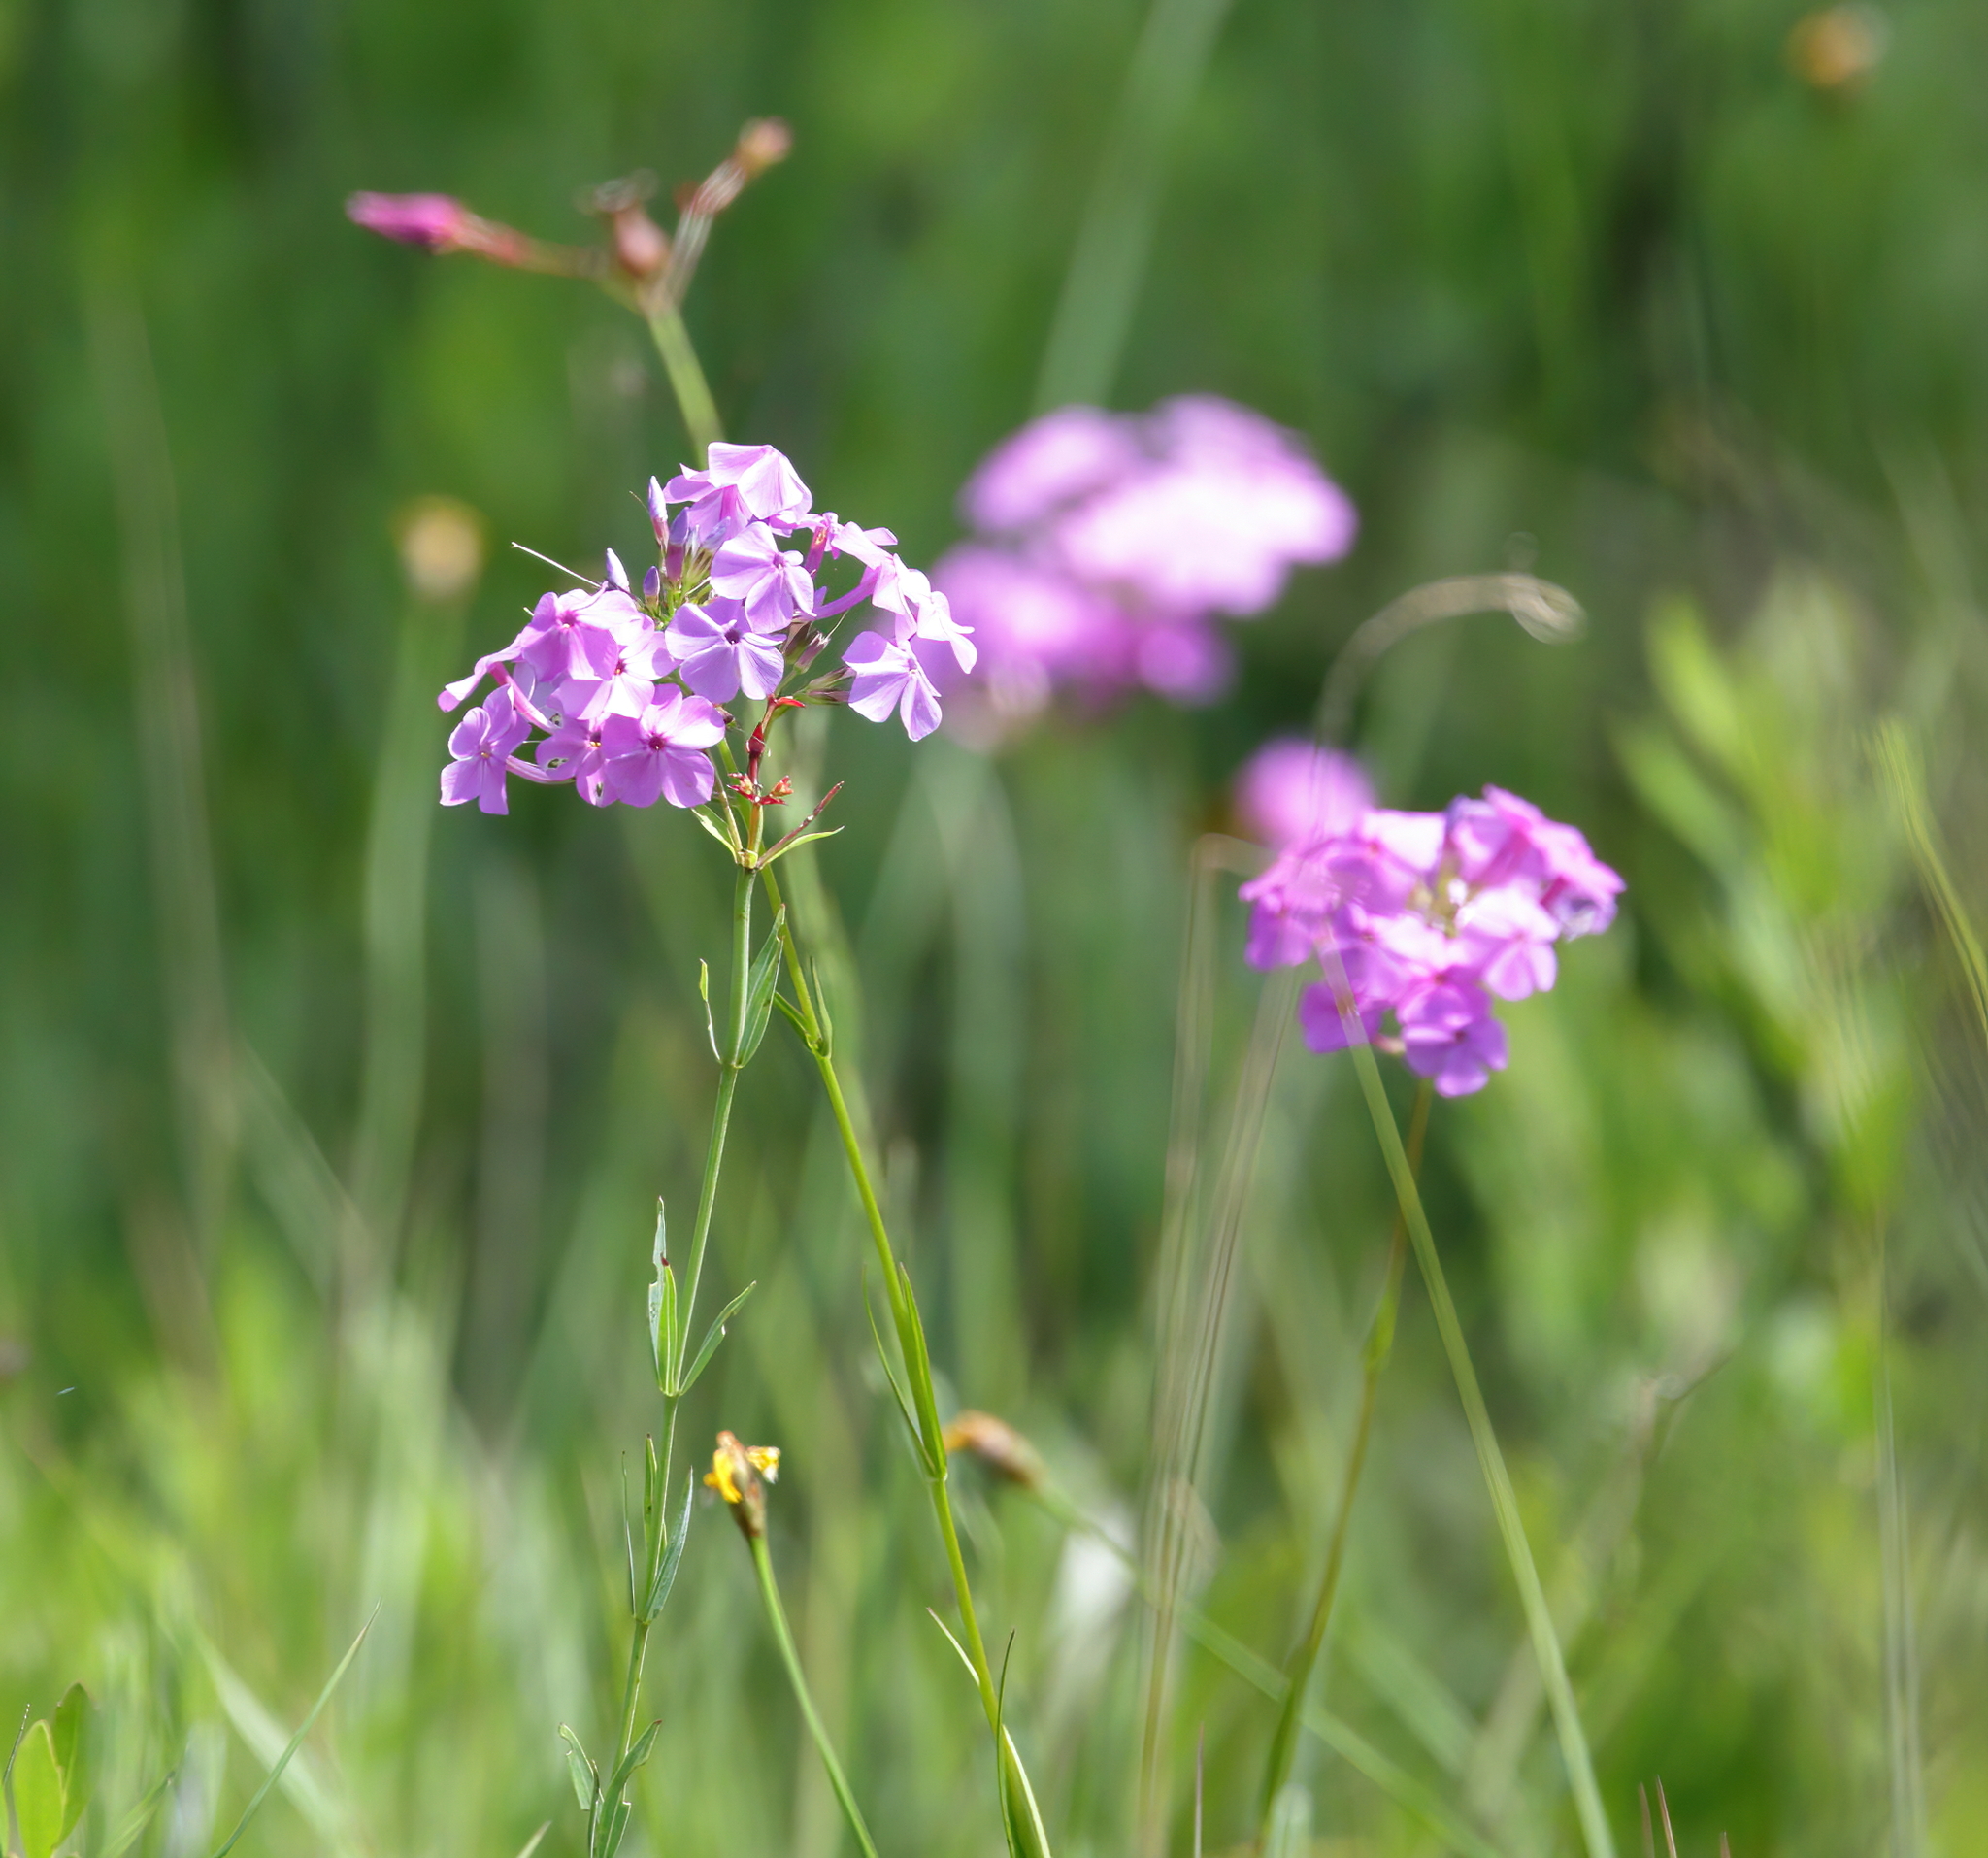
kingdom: Plantae
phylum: Tracheophyta
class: Magnoliopsida
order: Ericales
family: Polemoniaceae
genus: Phlox
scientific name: Phlox carolina
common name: Thick-leaf phlox
